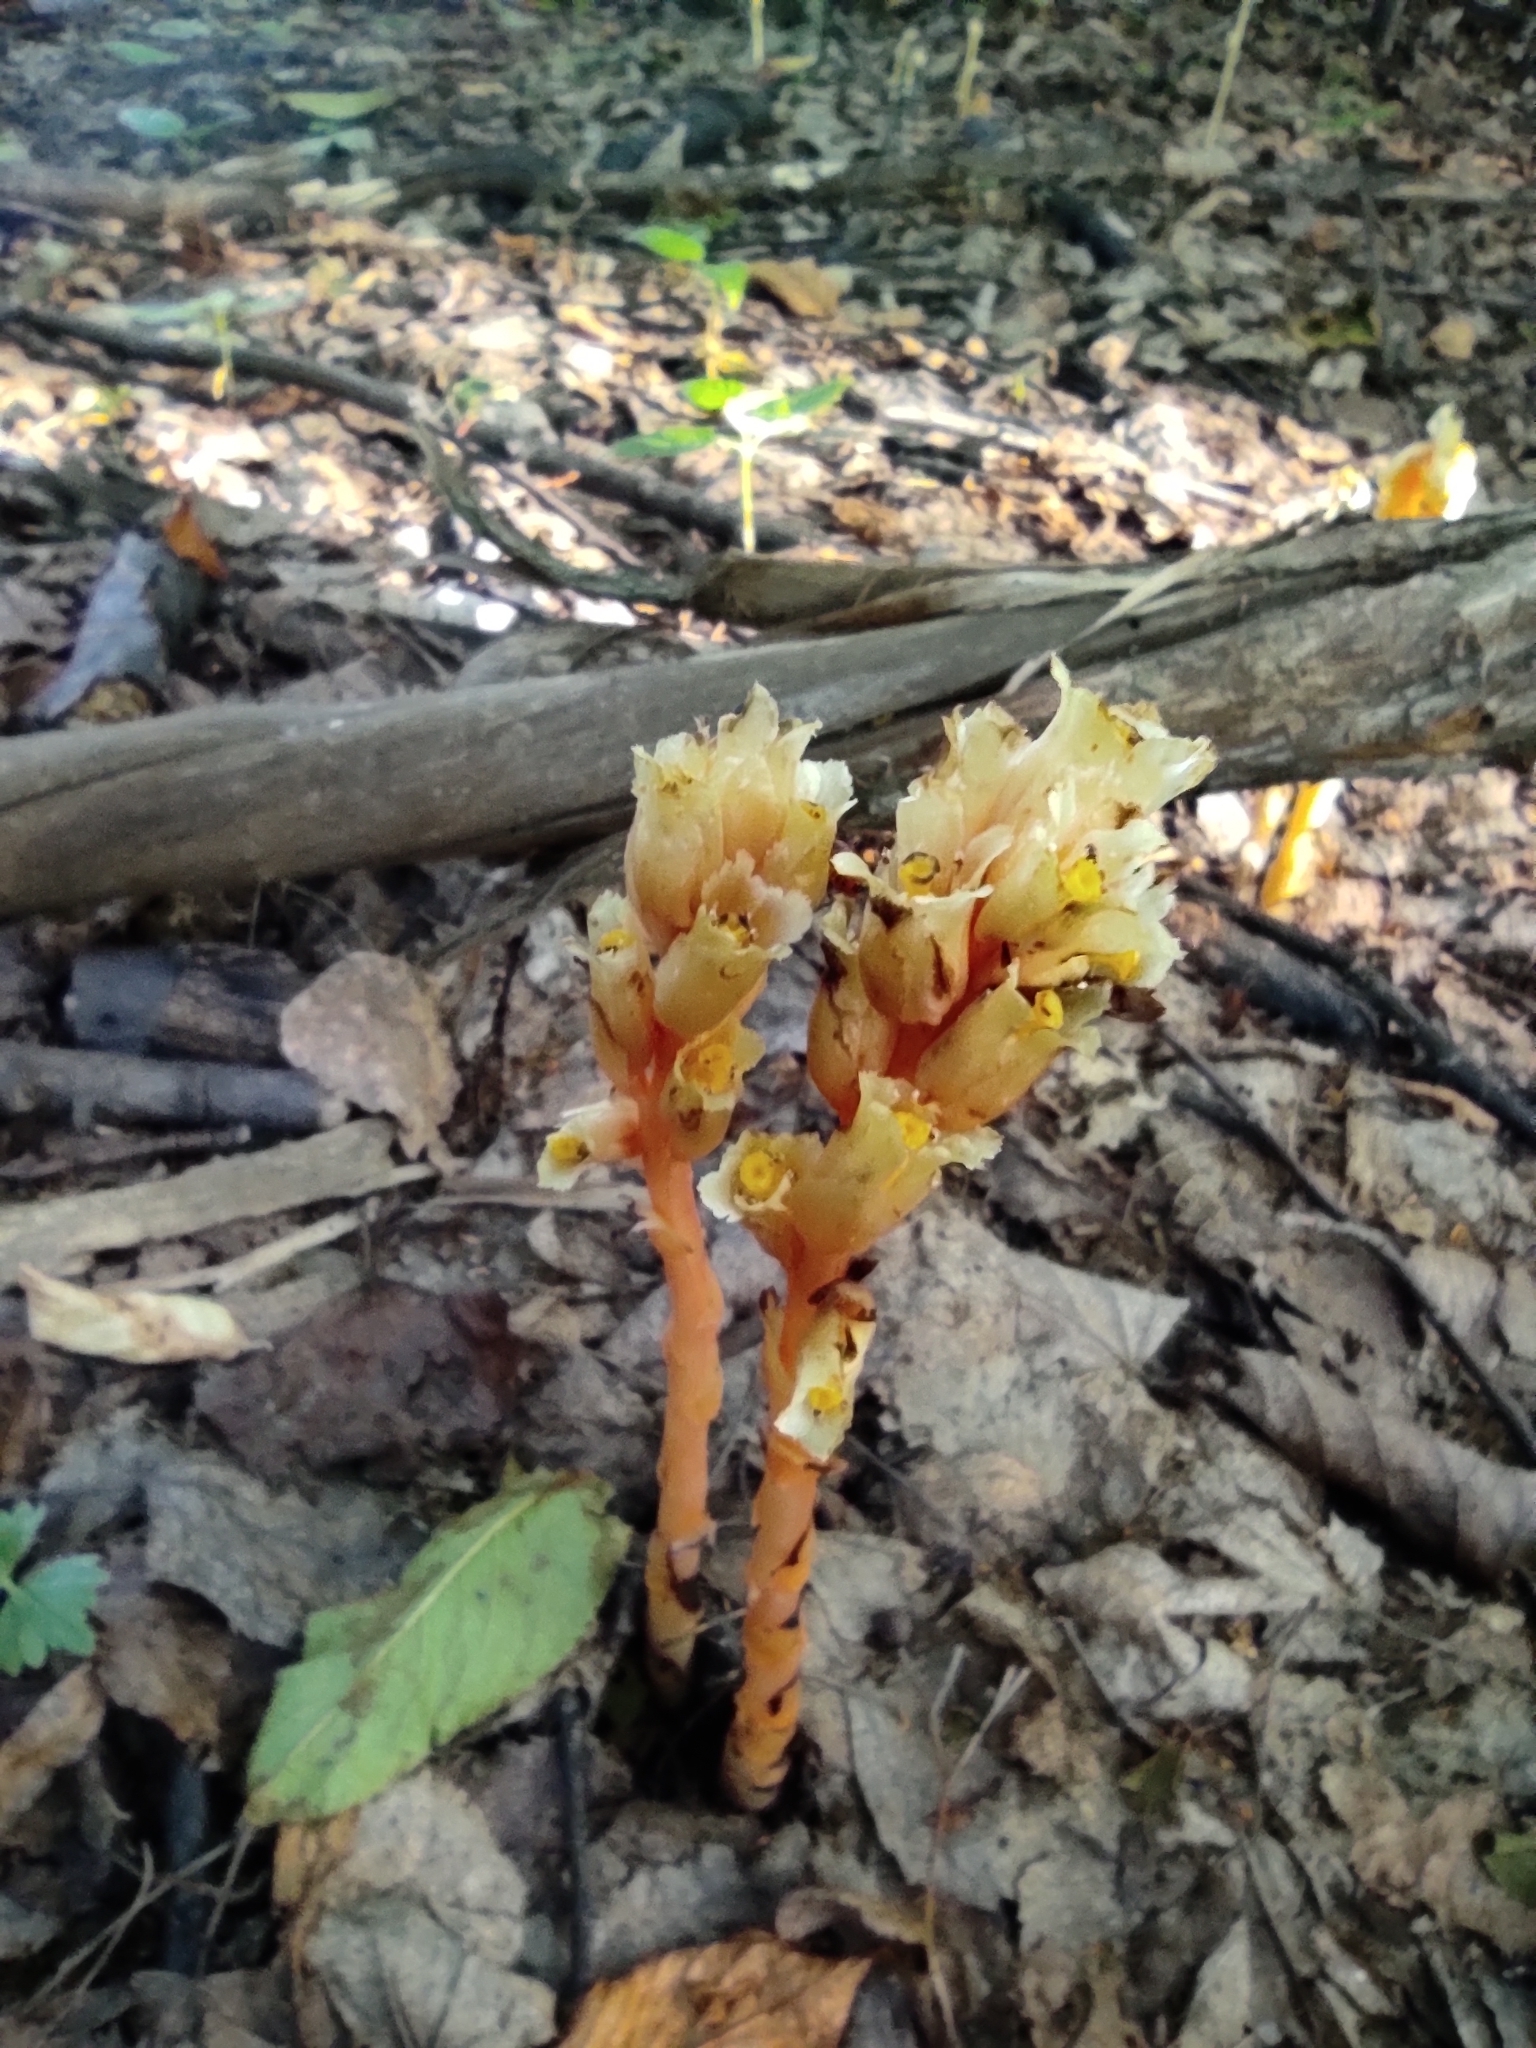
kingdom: Plantae
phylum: Tracheophyta
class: Magnoliopsida
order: Ericales
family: Ericaceae
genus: Hypopitys
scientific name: Hypopitys monotropa
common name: Yellow bird's-nest
